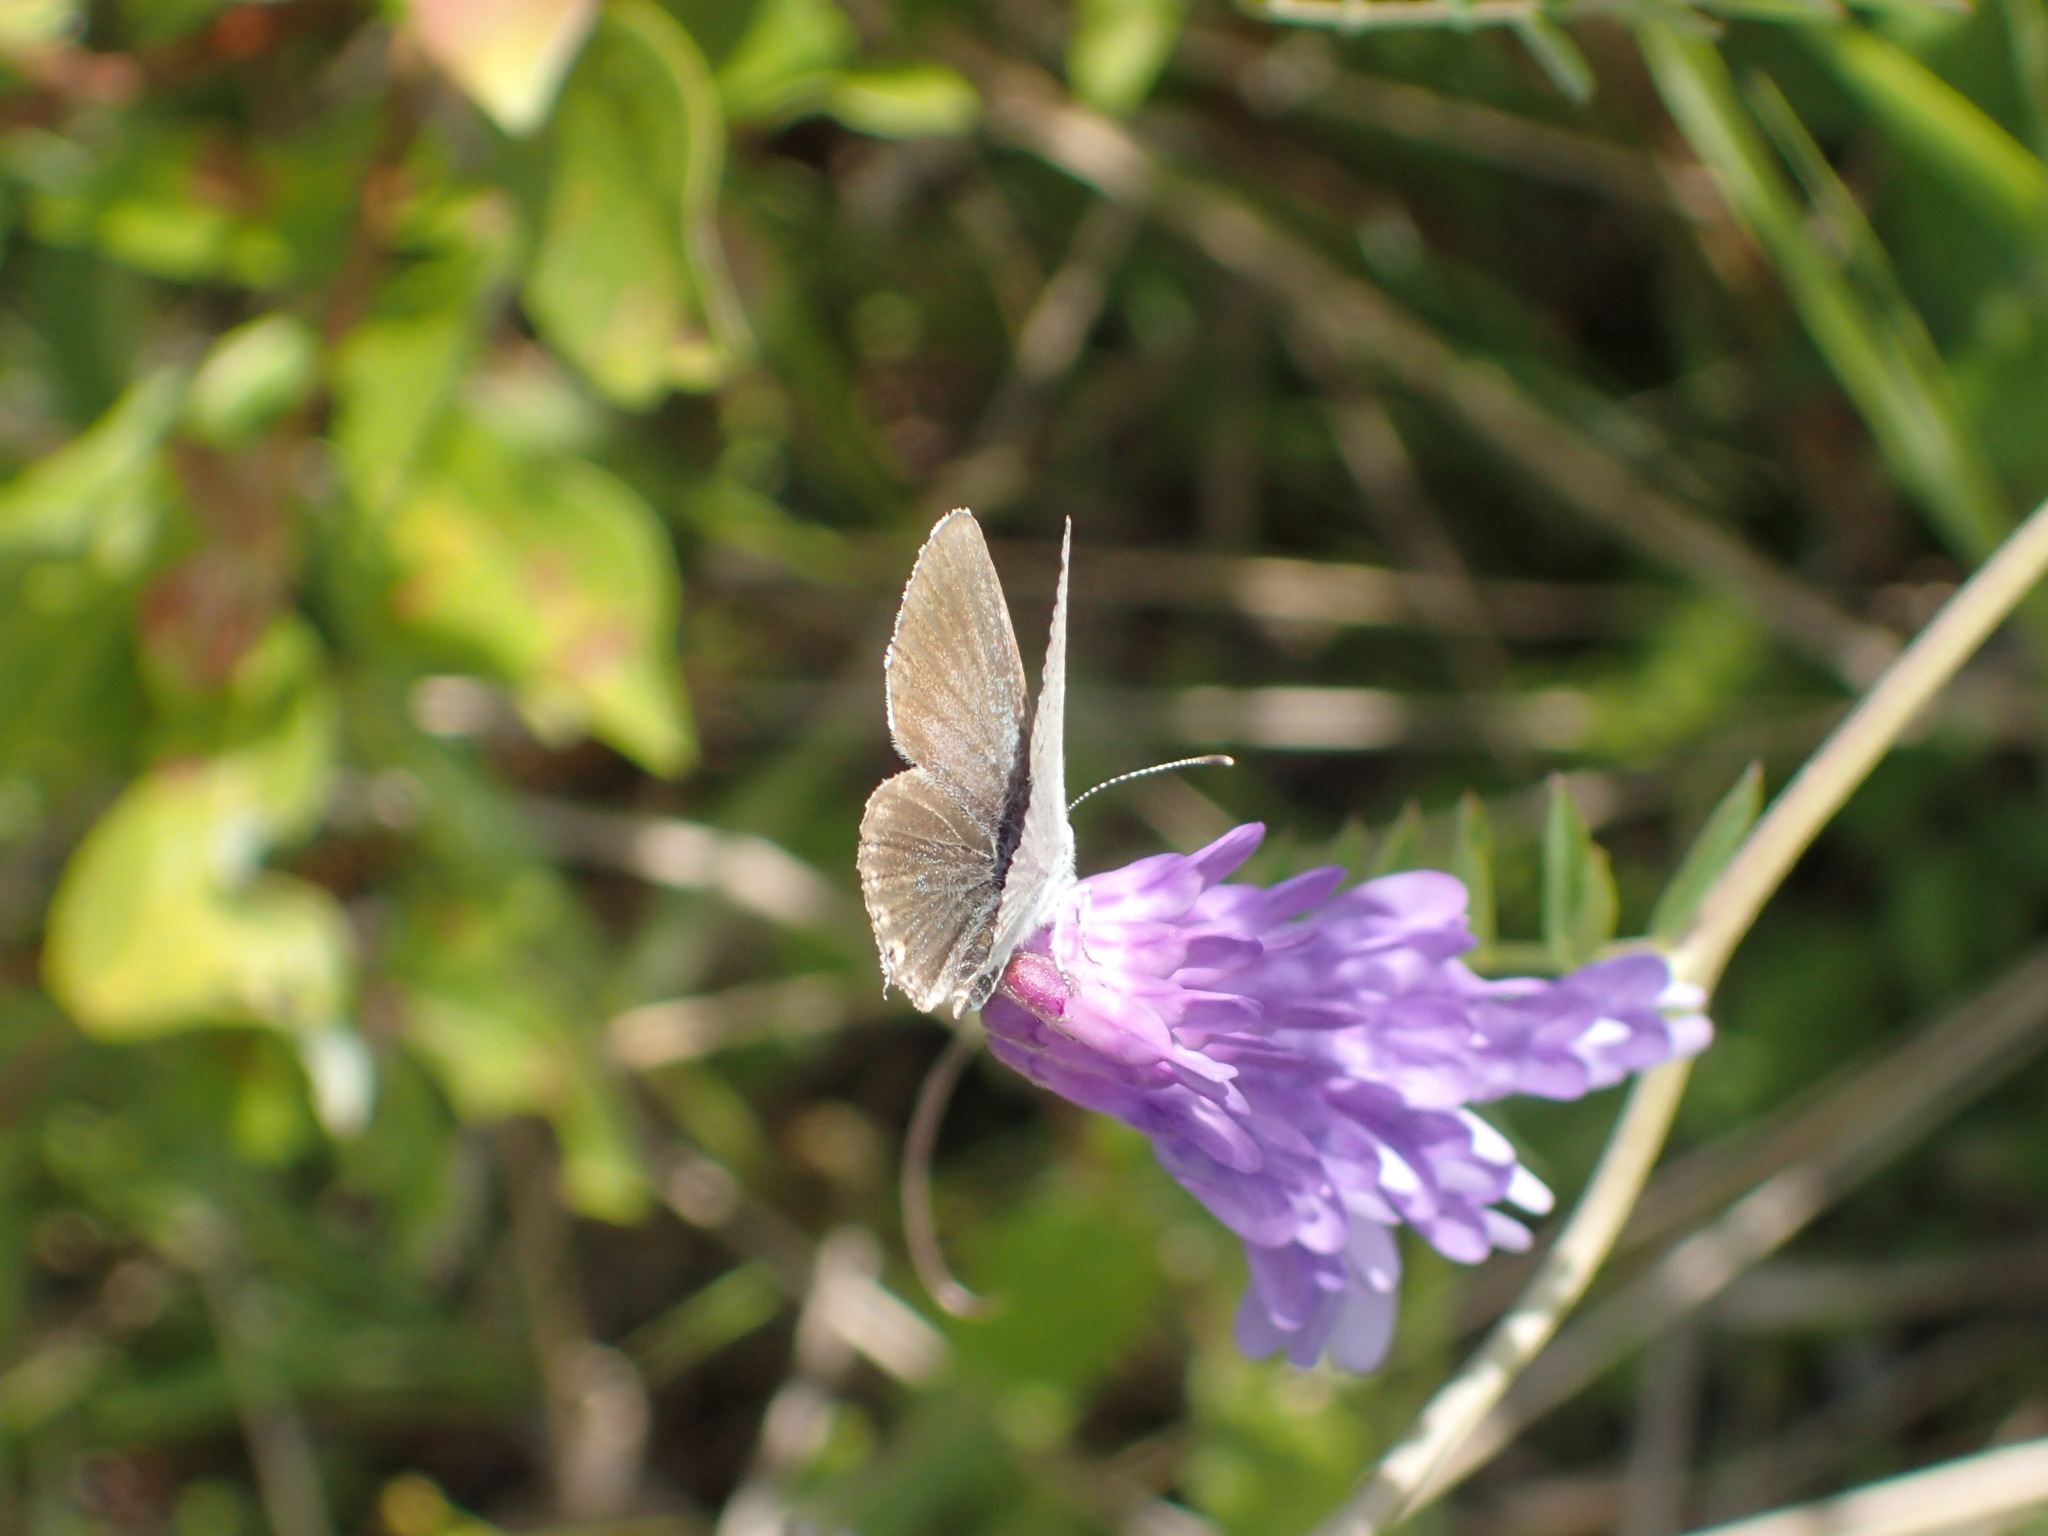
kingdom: Animalia
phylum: Arthropoda
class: Insecta
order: Lepidoptera
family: Lycaenidae
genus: Elkalyce
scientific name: Elkalyce comyntas
